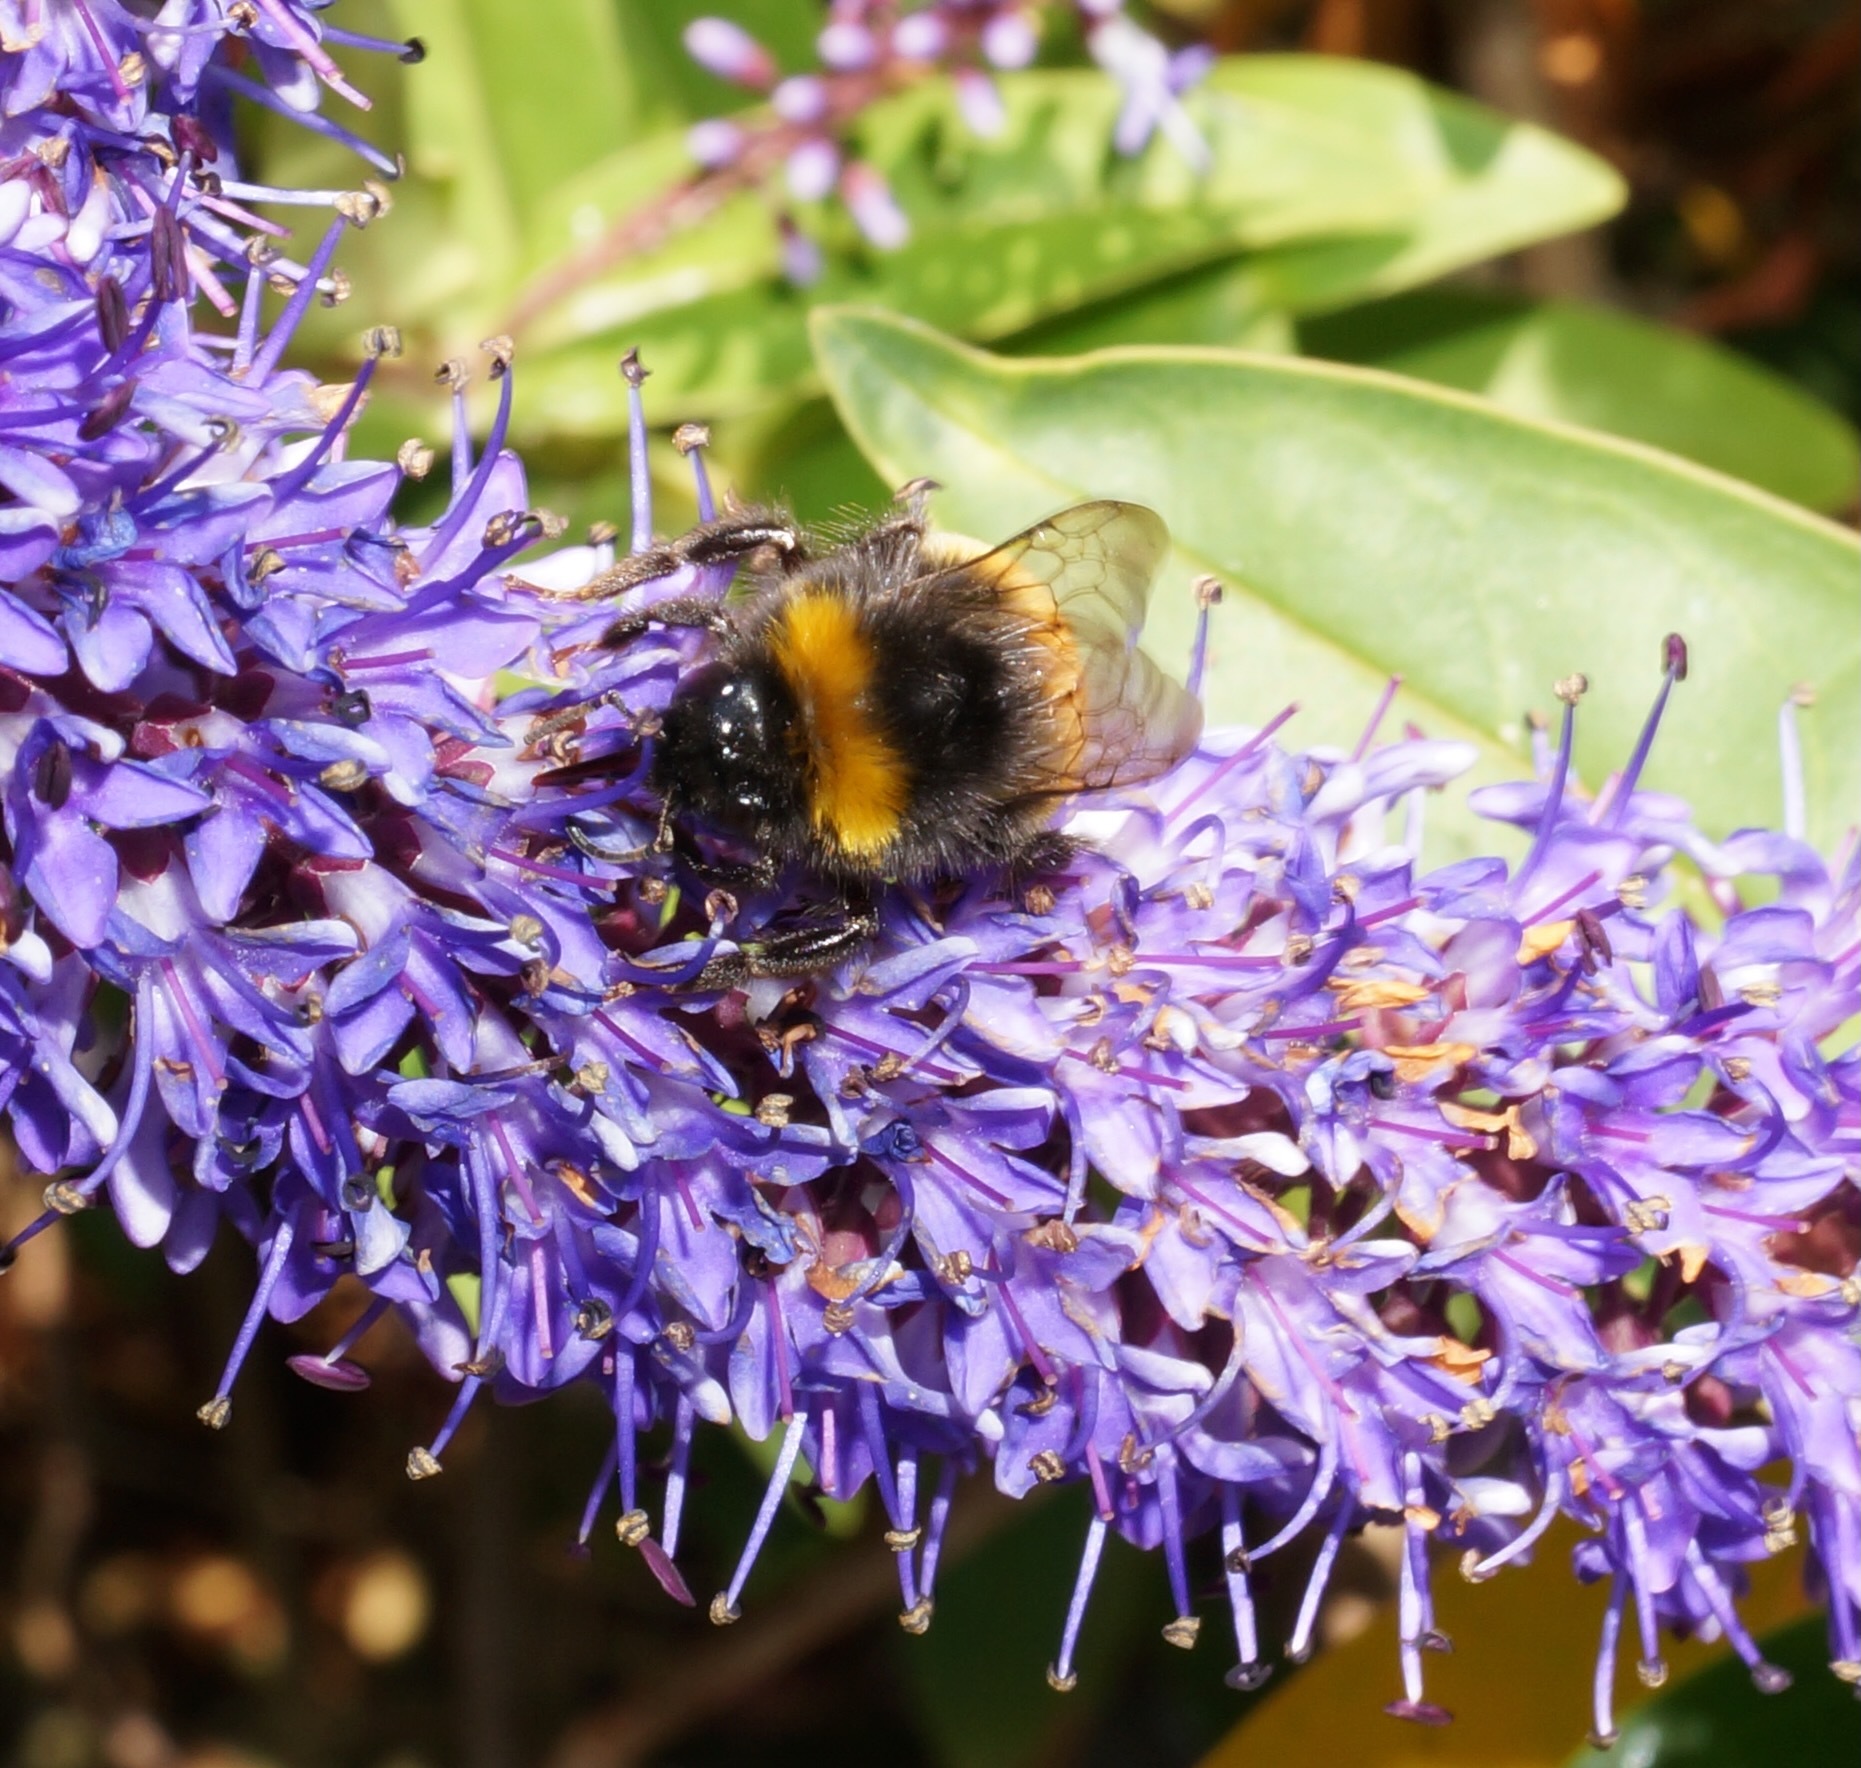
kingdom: Animalia
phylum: Arthropoda
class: Insecta
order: Hymenoptera
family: Apidae
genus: Bombus
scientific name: Bombus terrestris
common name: Buff-tailed bumblebee
